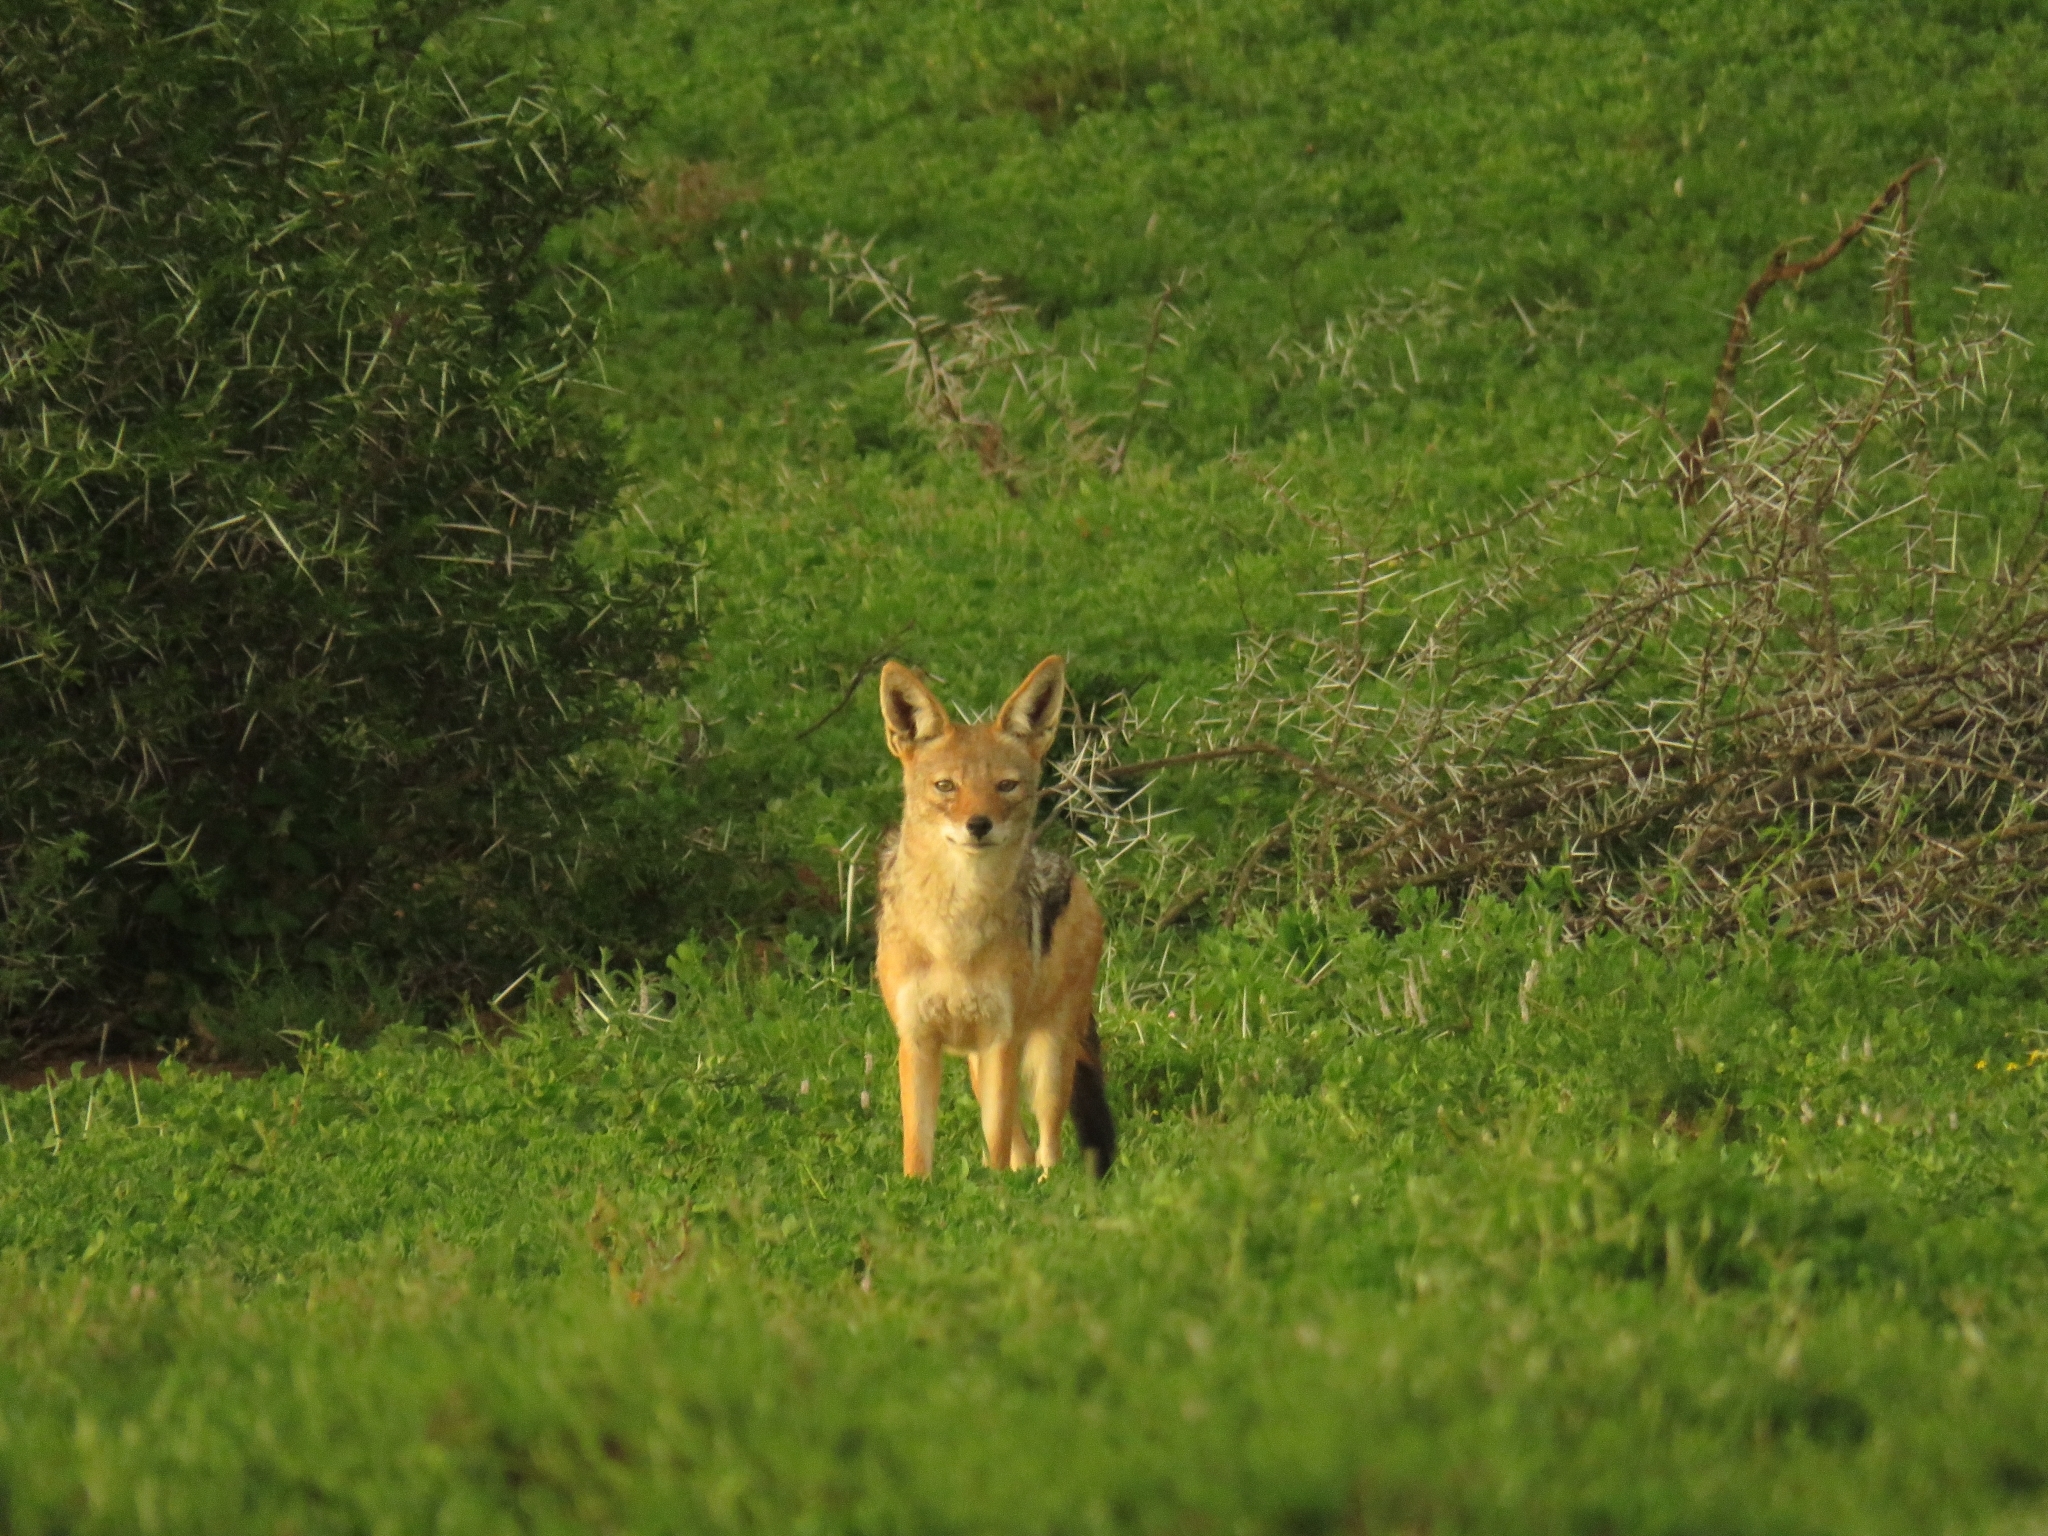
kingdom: Animalia
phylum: Chordata
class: Mammalia
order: Carnivora
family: Canidae
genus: Lupulella
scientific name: Lupulella
